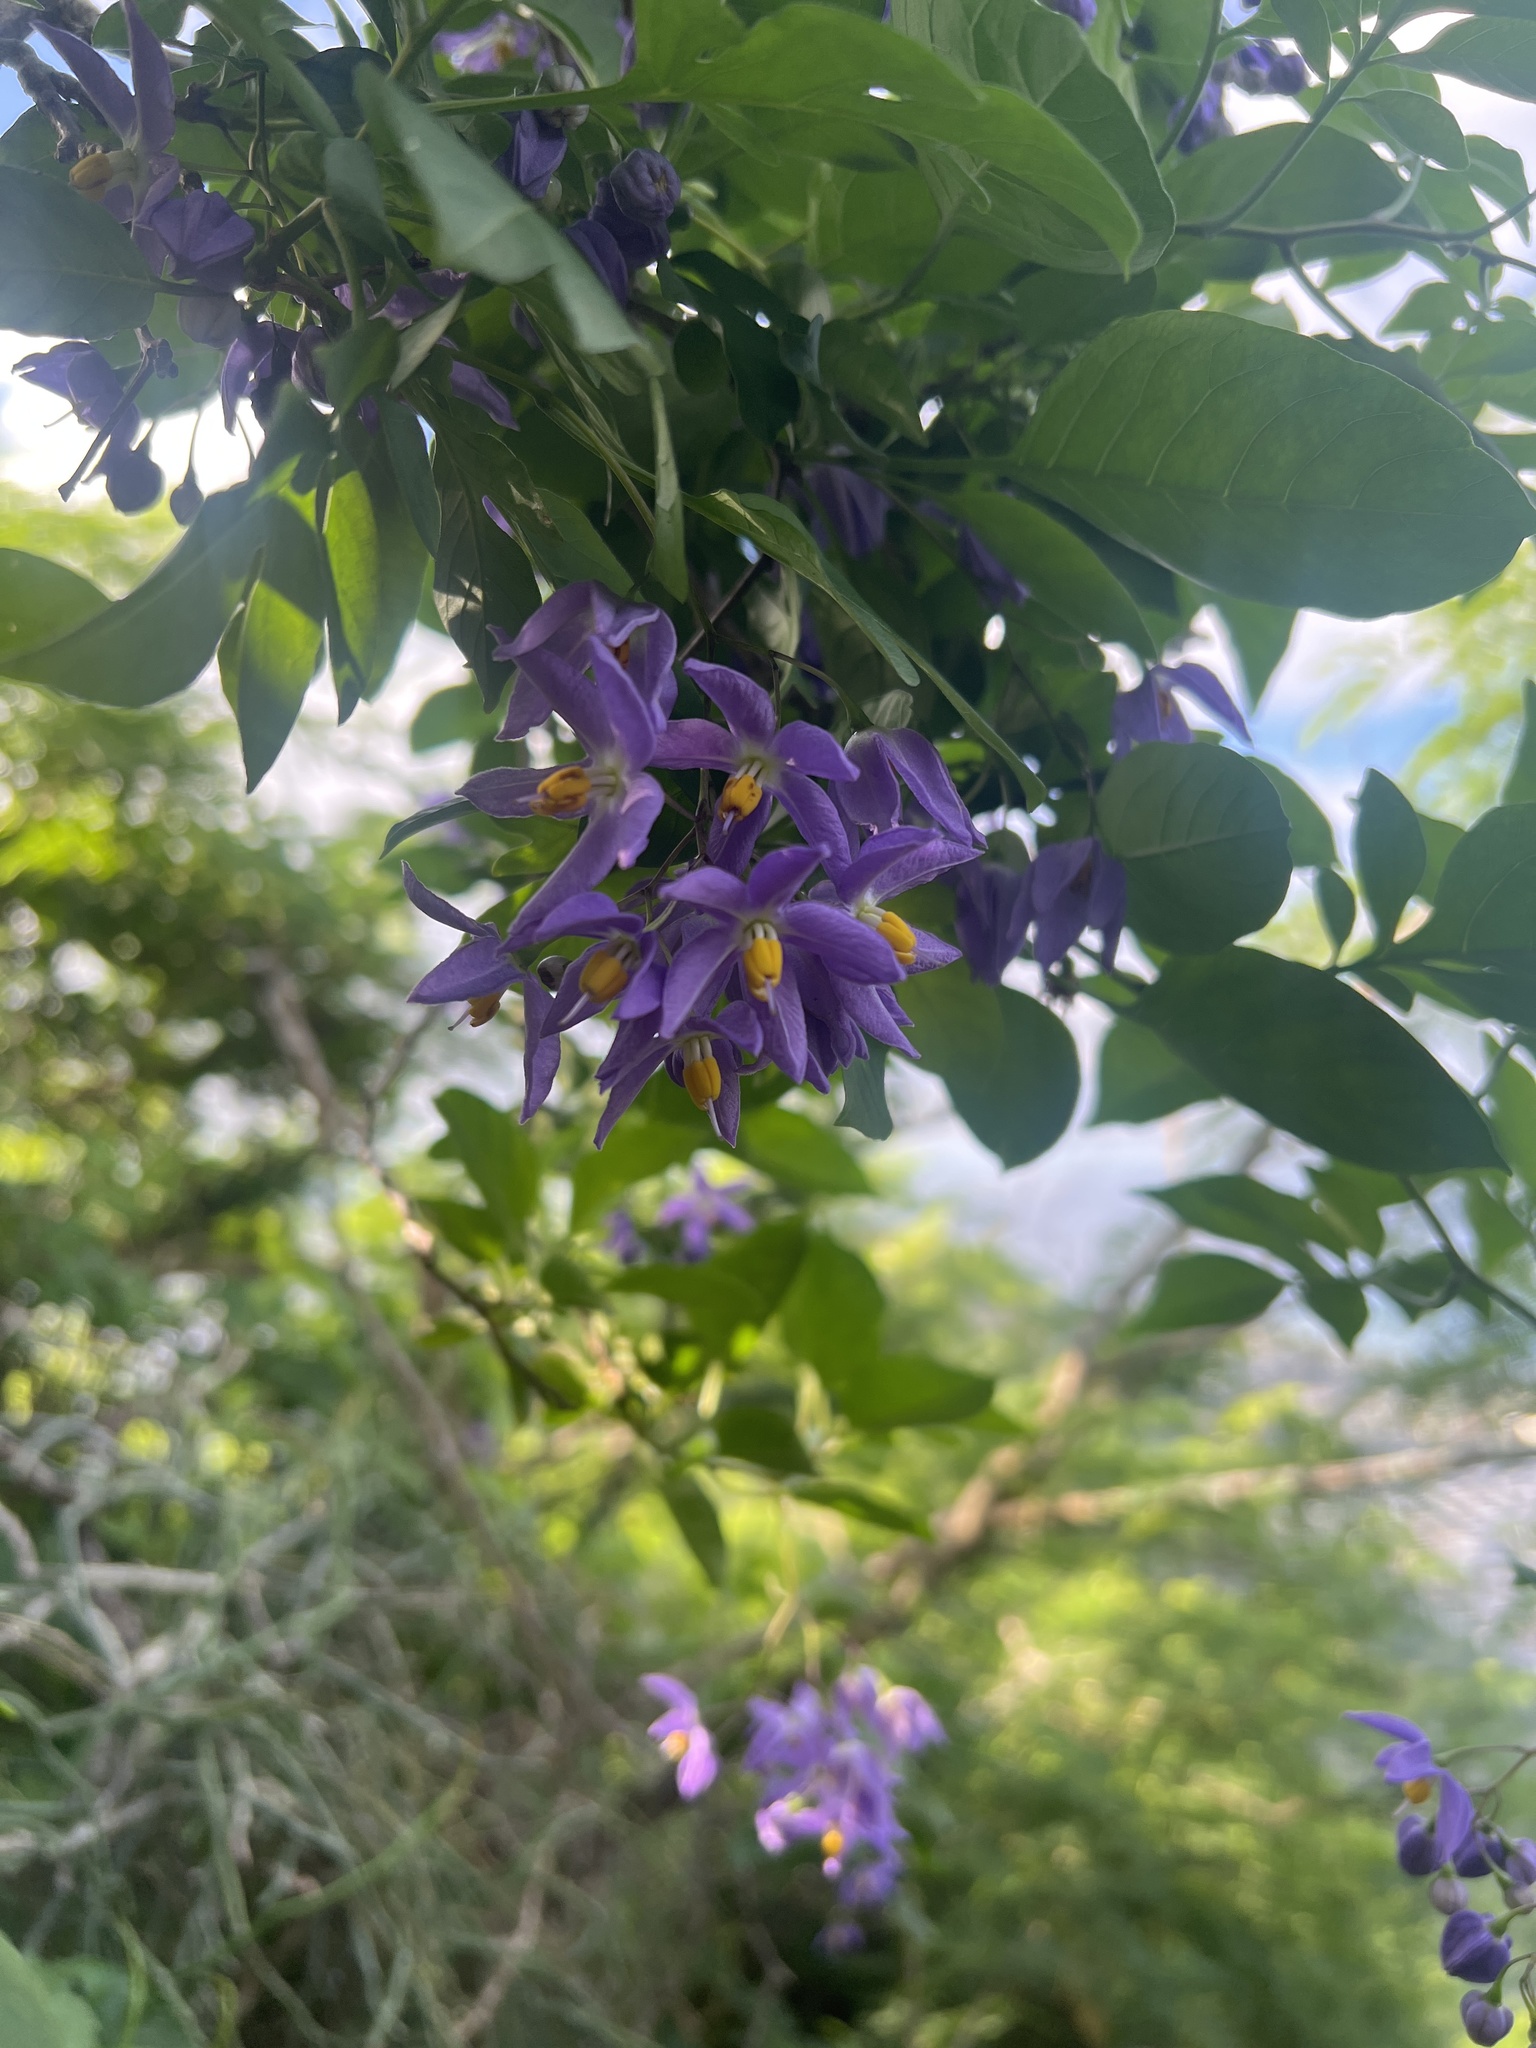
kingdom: Plantae
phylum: Tracheophyta
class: Magnoliopsida
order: Solanales
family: Solanaceae
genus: Solanum
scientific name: Solanum seaforthianum
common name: Brazilian nightshade
